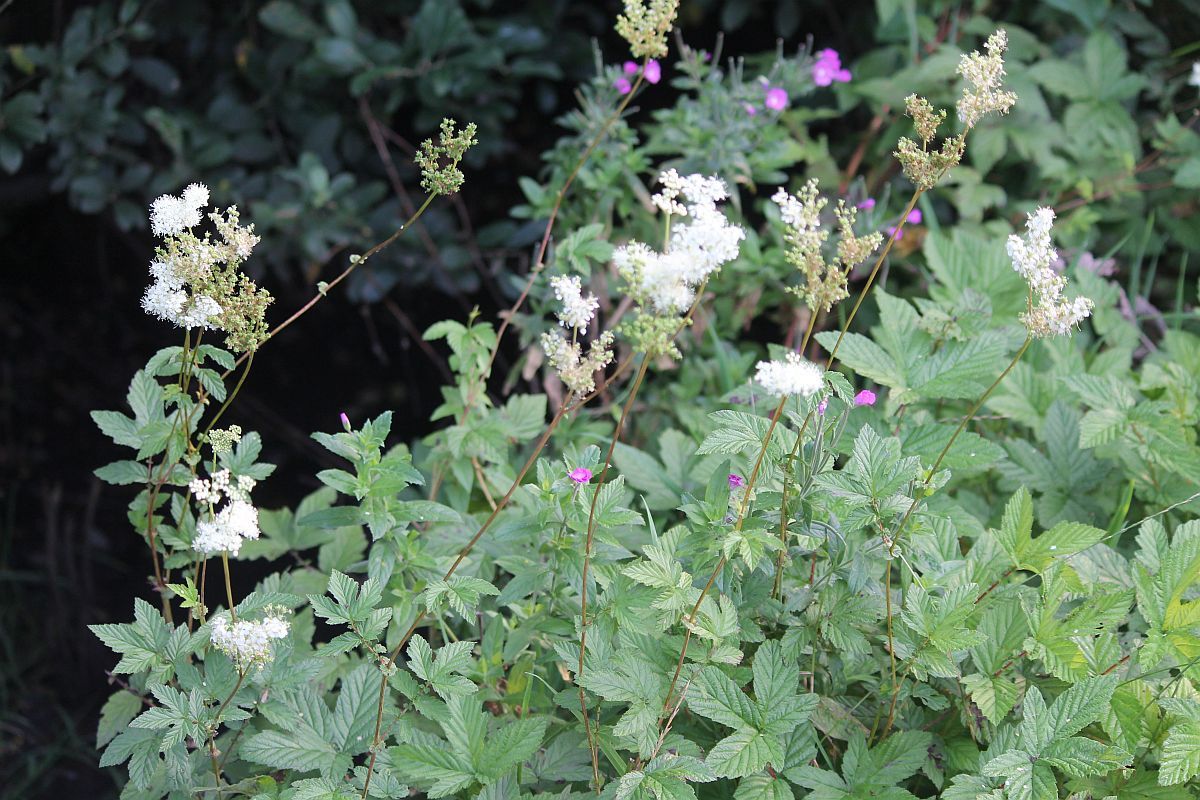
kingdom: Plantae
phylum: Tracheophyta
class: Magnoliopsida
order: Rosales
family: Rosaceae
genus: Filipendula
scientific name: Filipendula ulmaria
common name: Meadowsweet
